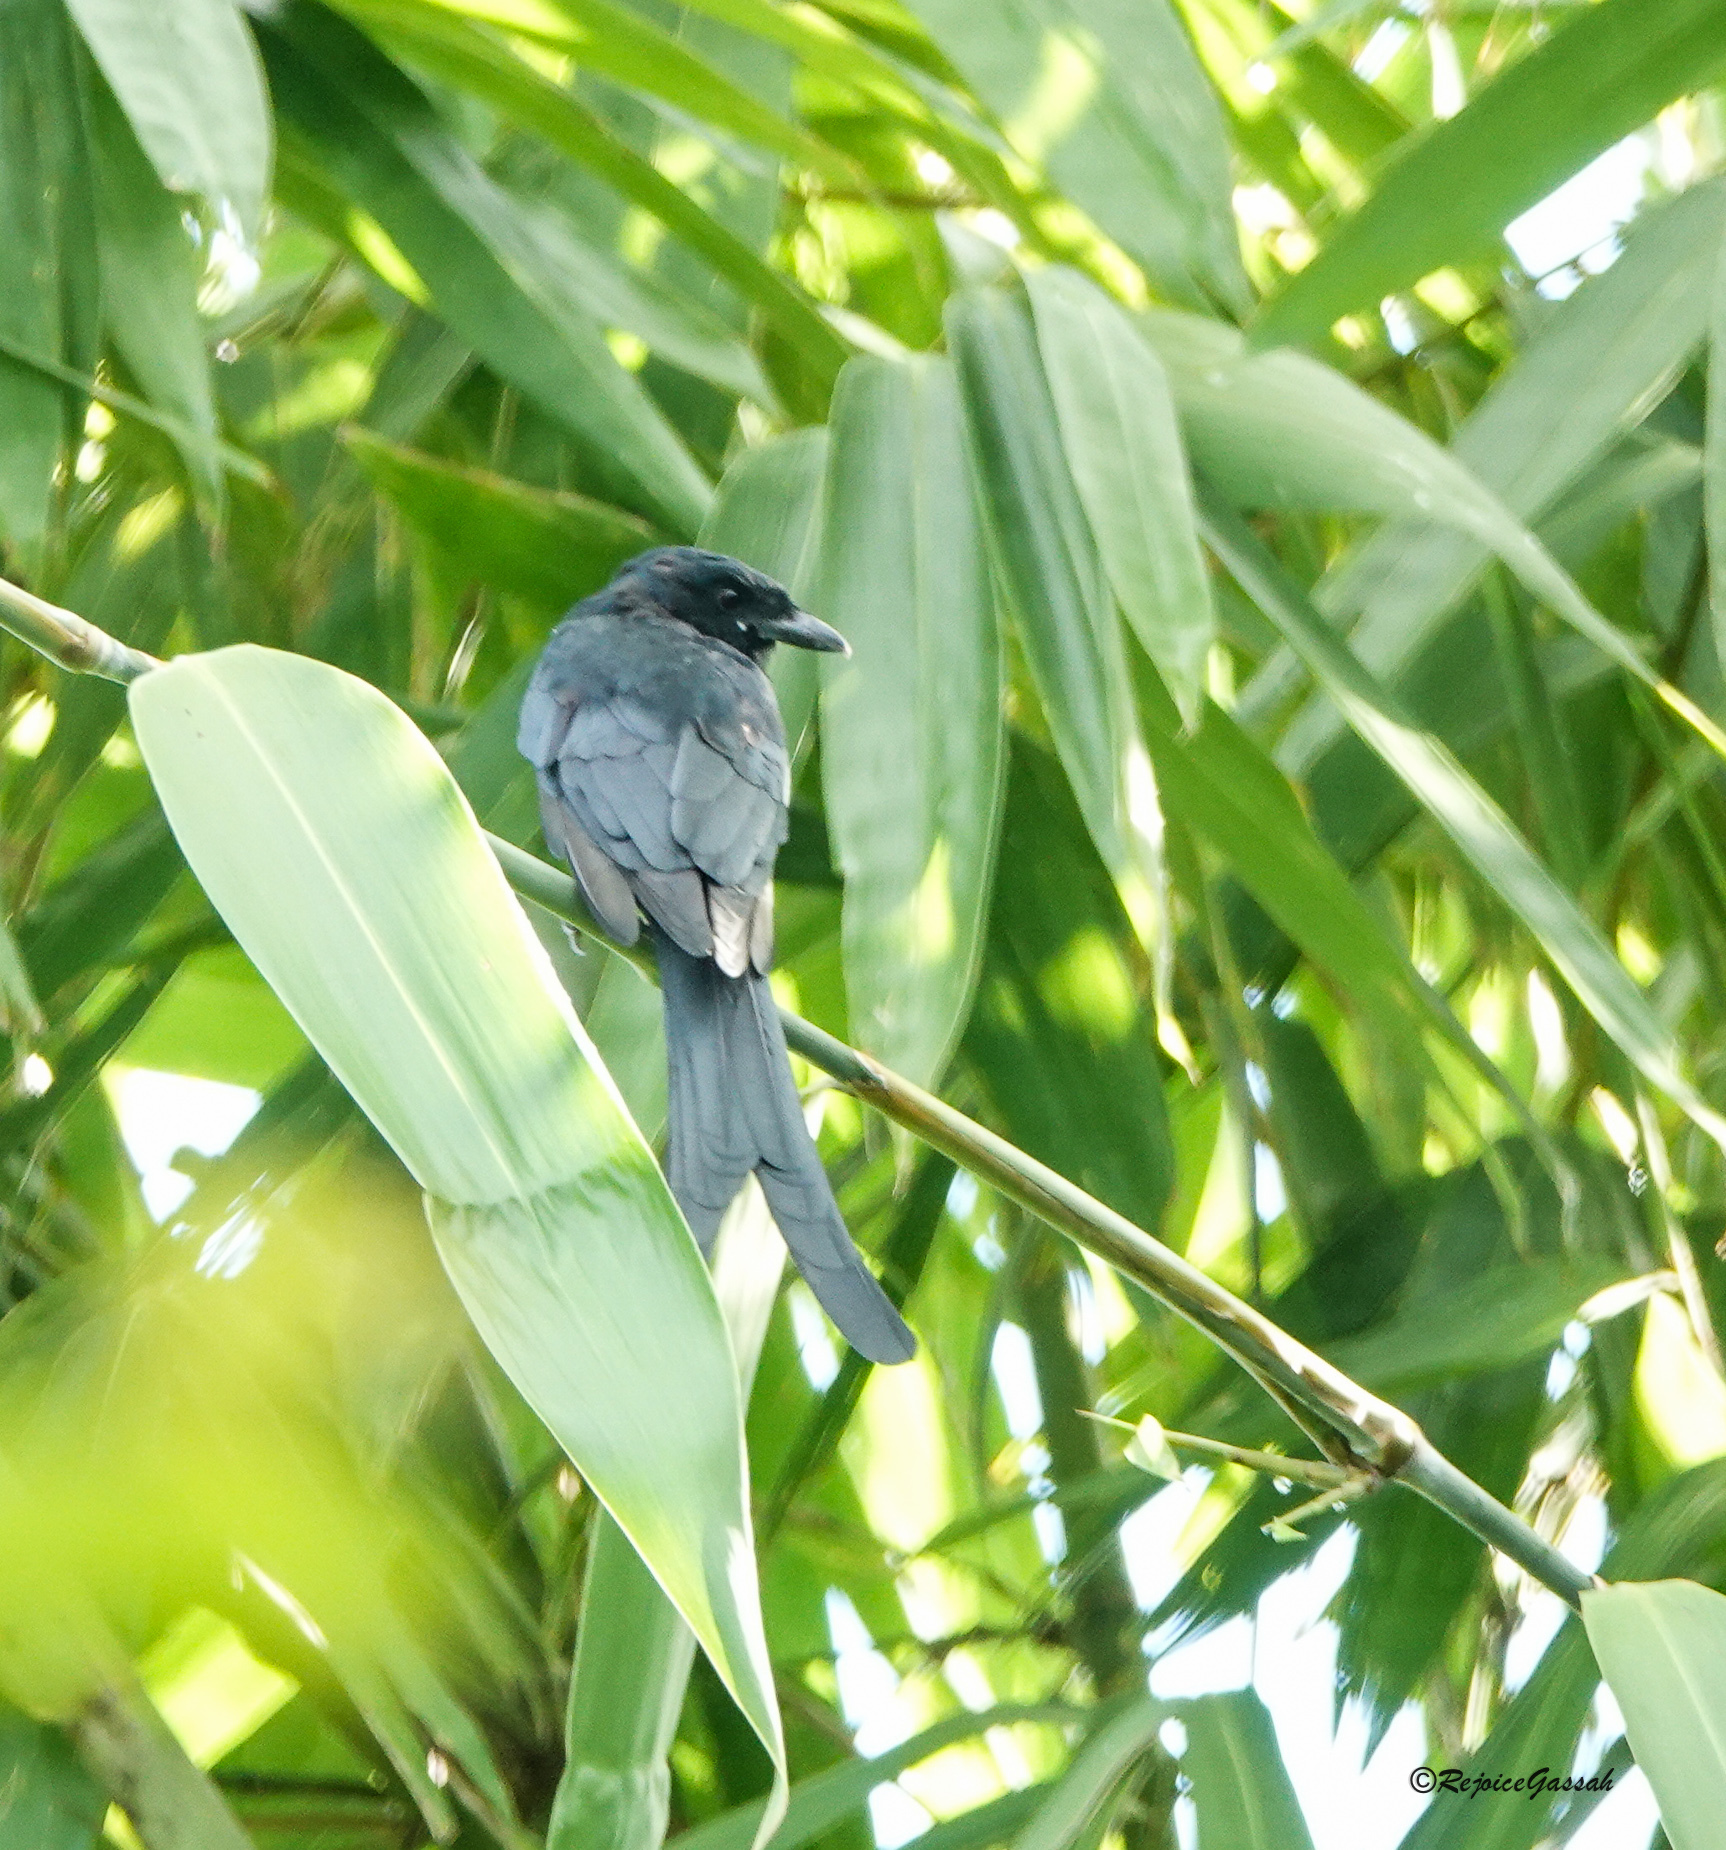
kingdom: Animalia
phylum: Chordata
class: Aves
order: Passeriformes
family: Dicruridae
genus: Dicrurus
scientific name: Dicrurus macrocercus
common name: Black drongo
